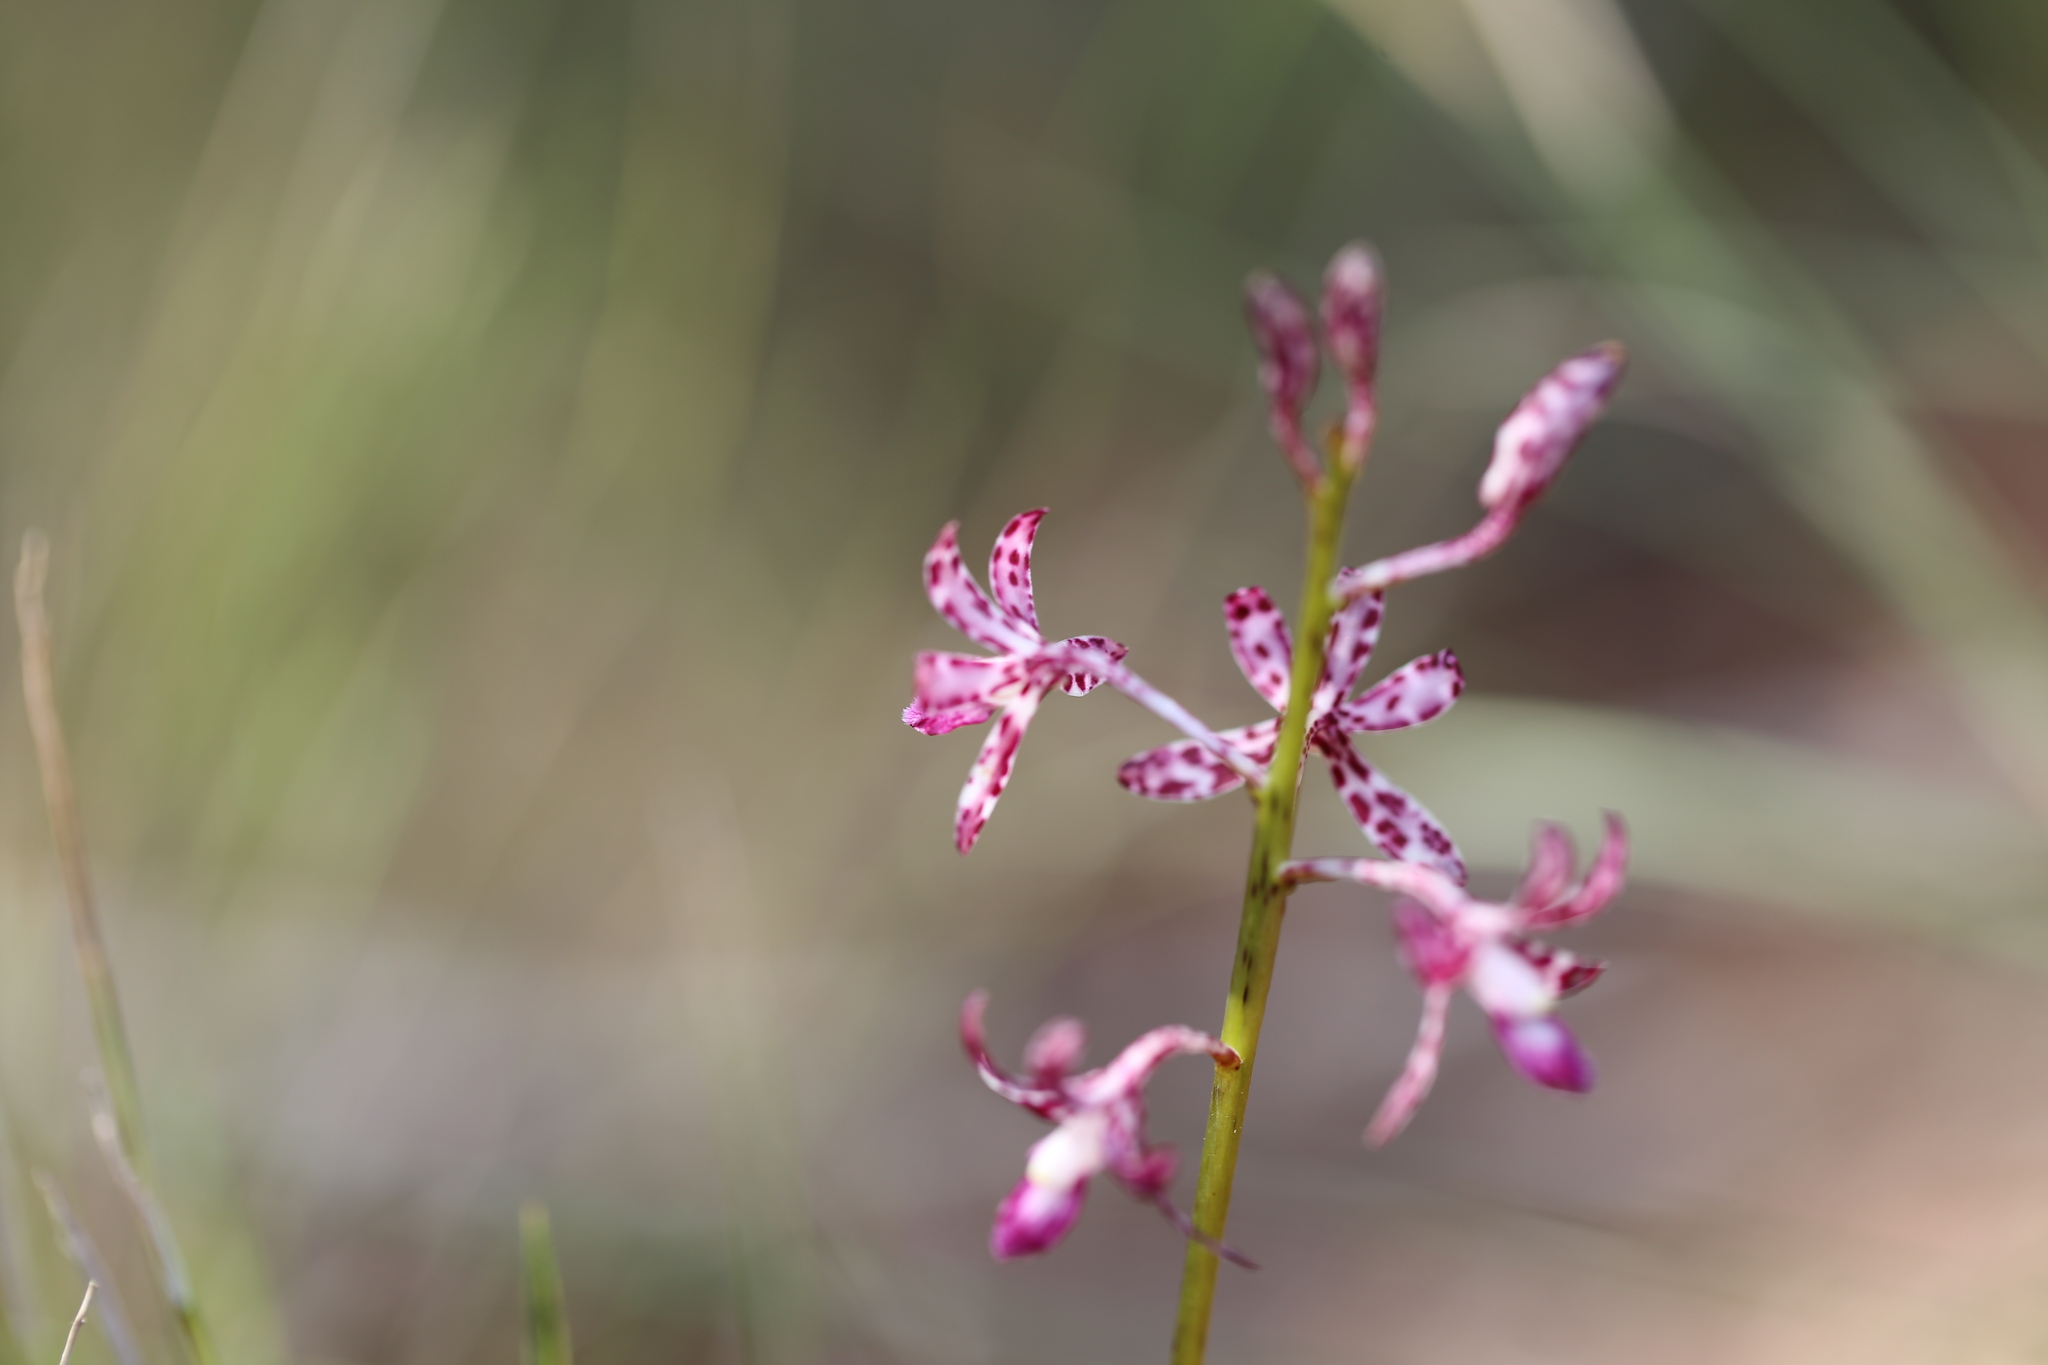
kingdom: Plantae
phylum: Tracheophyta
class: Liliopsida
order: Asparagales
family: Orchidaceae
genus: Dipodium
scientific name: Dipodium variegatum
